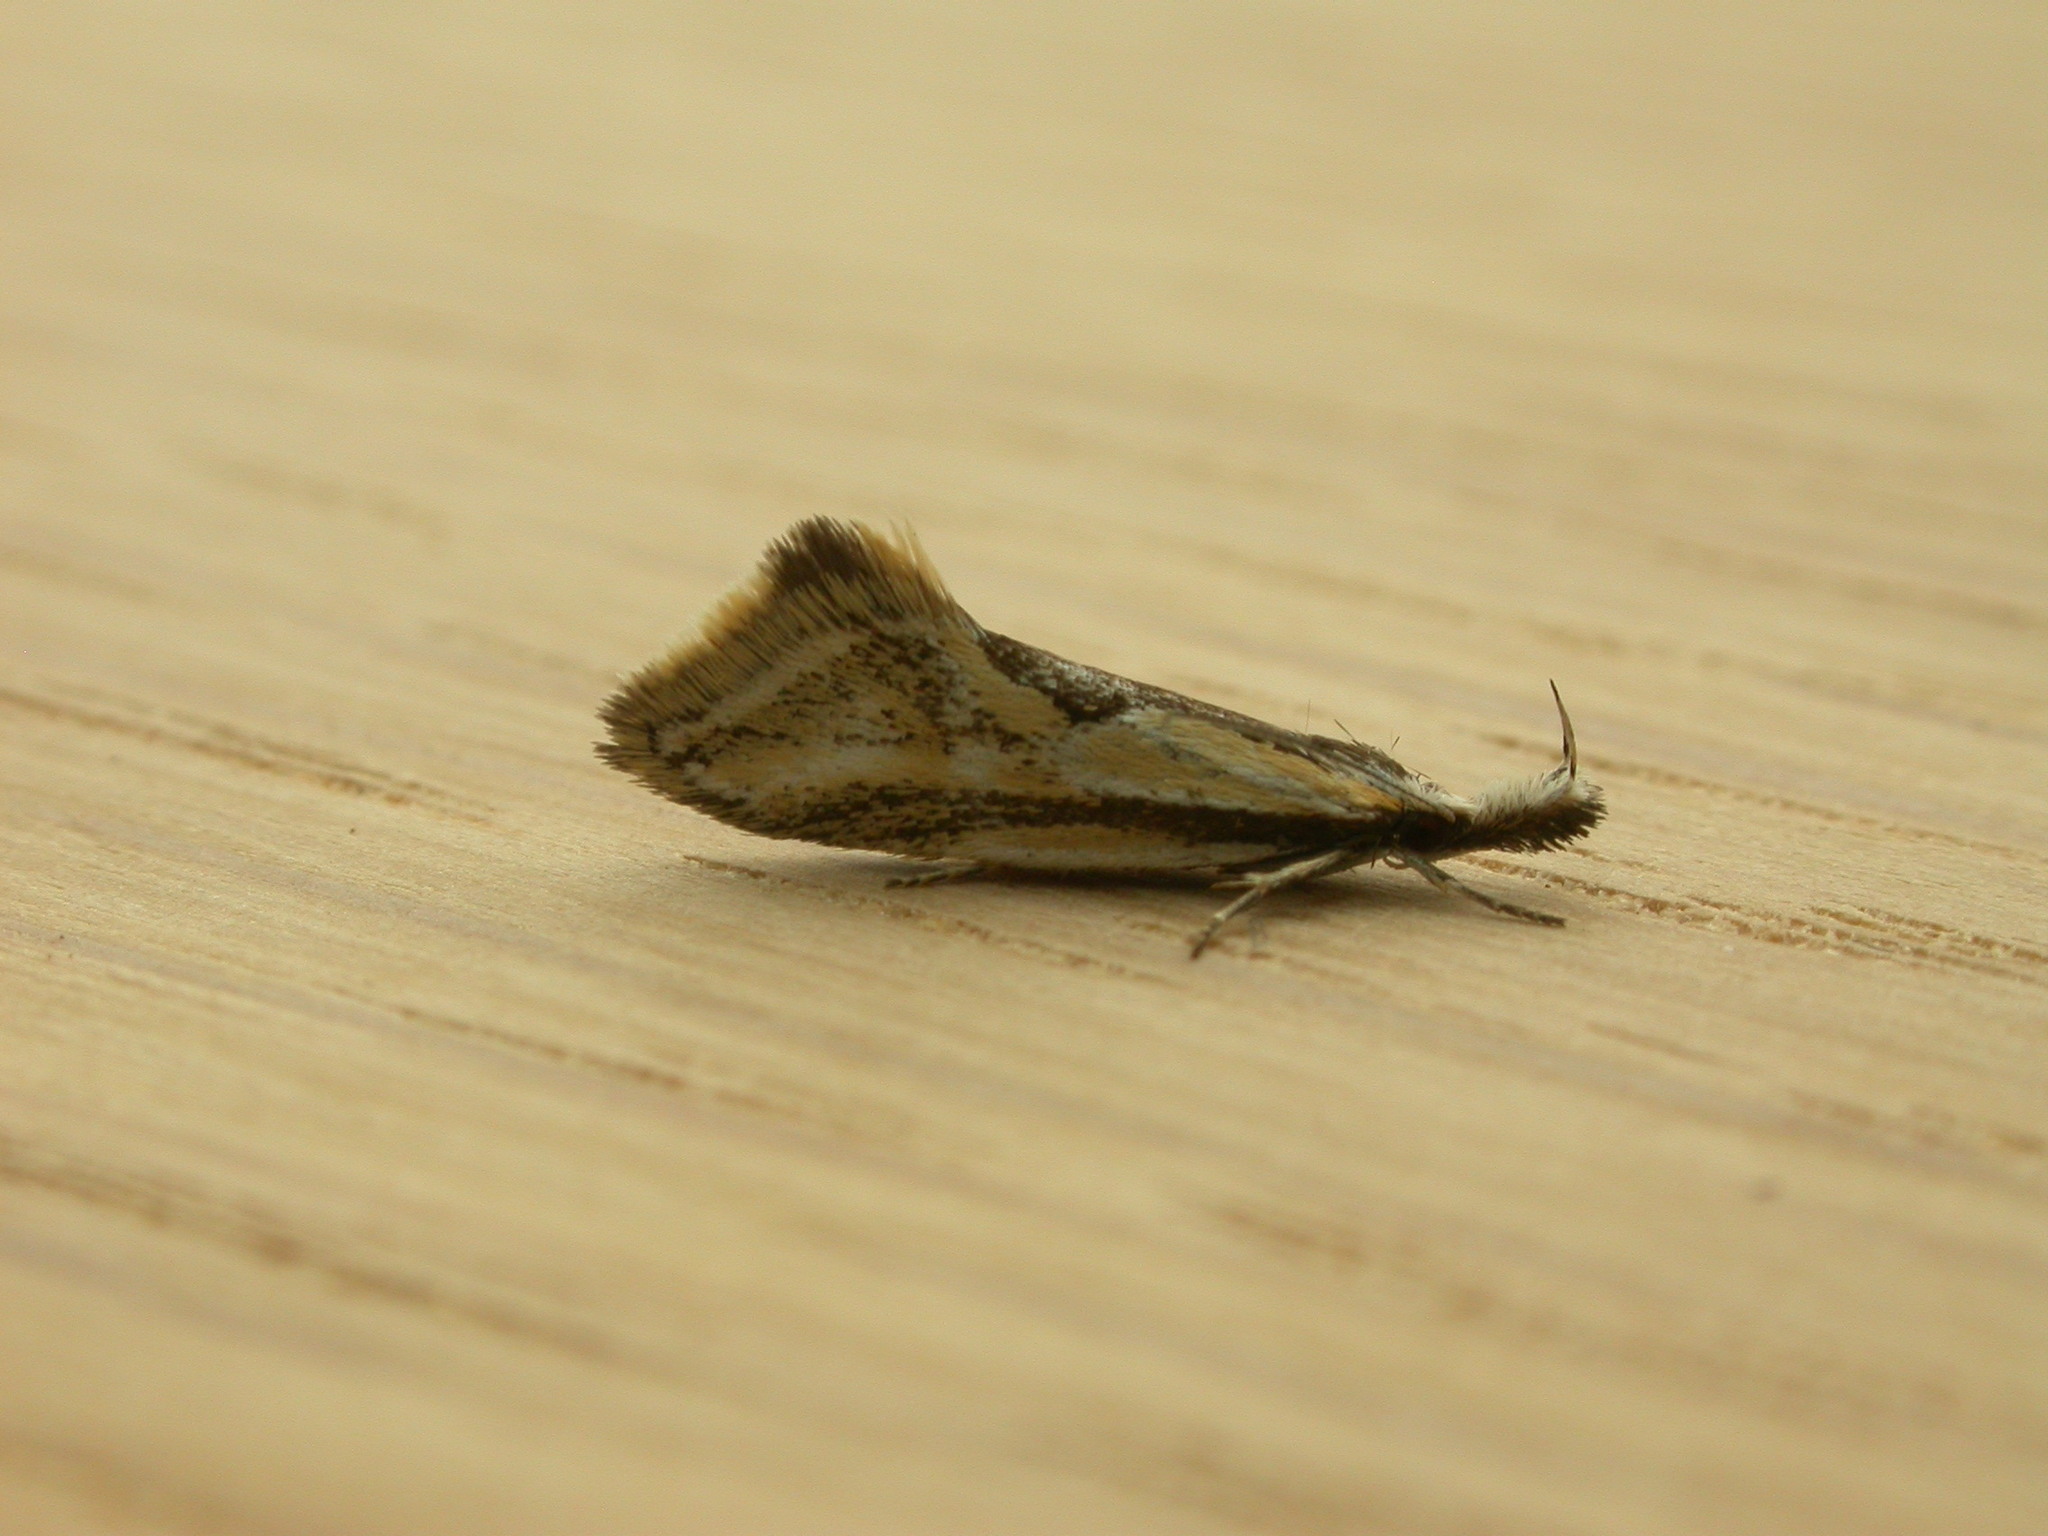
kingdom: Animalia
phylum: Arthropoda
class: Insecta
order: Lepidoptera
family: Oecophoridae
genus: Thema
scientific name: Thema macroscia
